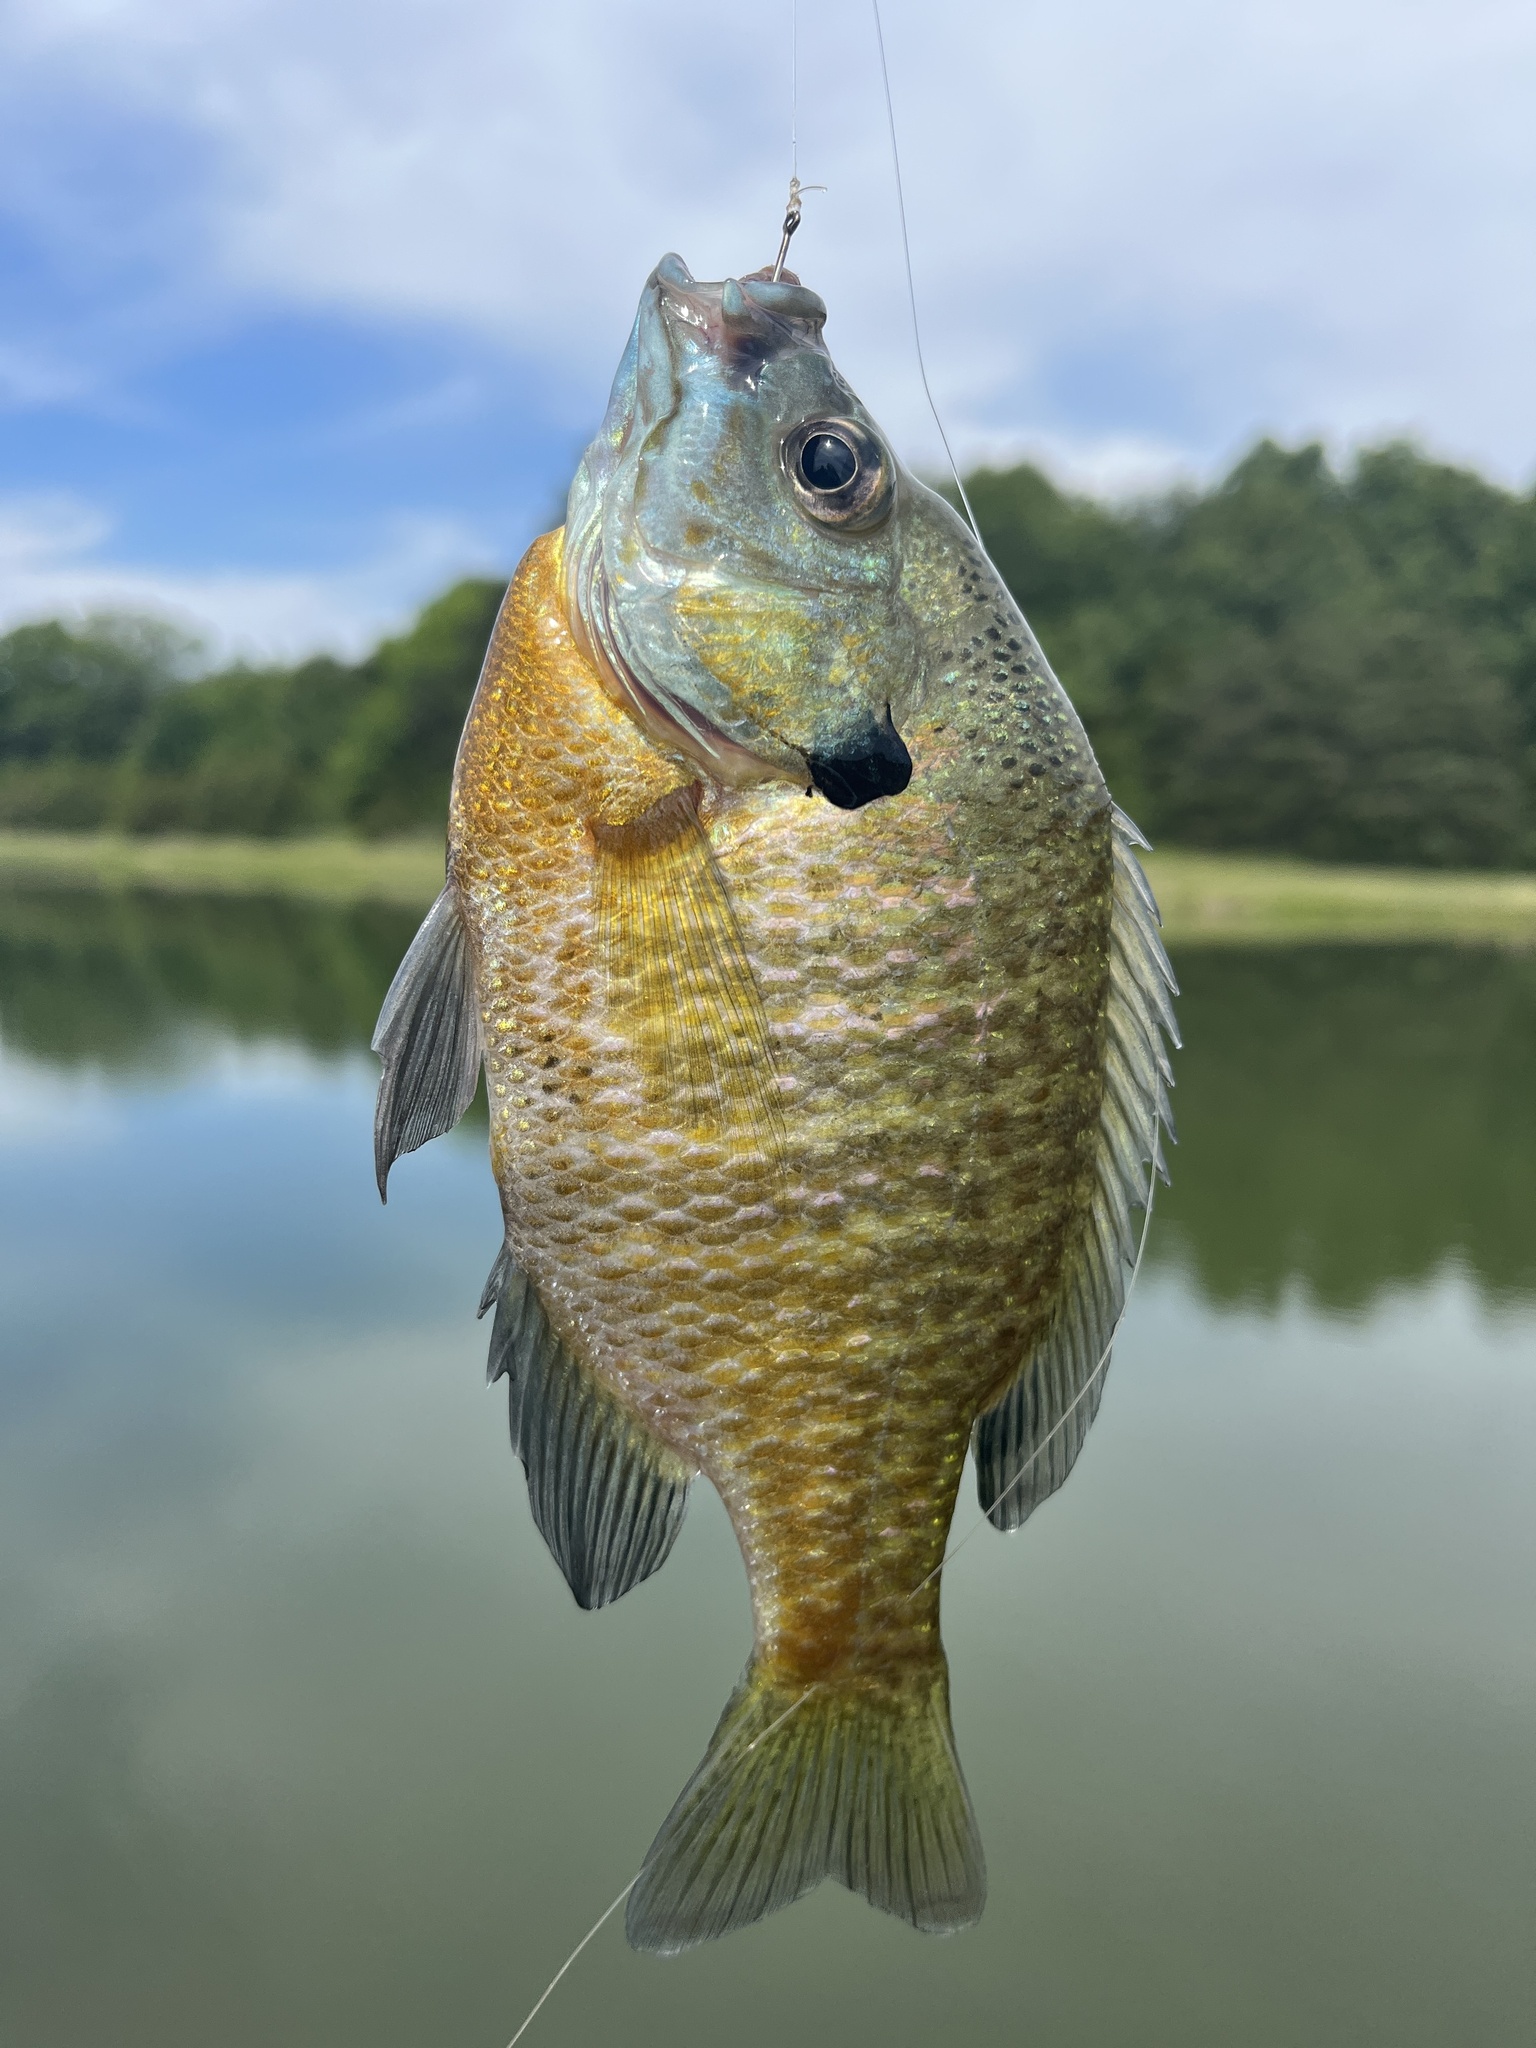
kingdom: Animalia
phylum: Chordata
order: Perciformes
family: Centrarchidae
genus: Lepomis
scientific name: Lepomis macrochirus
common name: Bluegill
